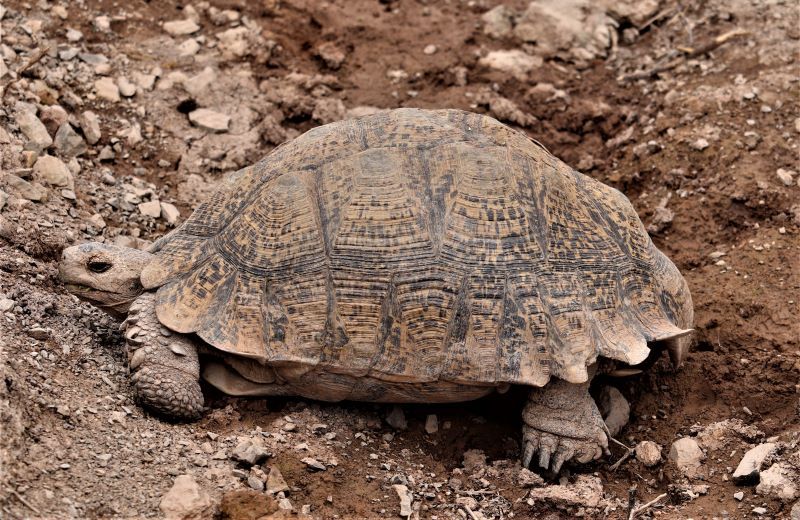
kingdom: Animalia
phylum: Chordata
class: Testudines
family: Testudinidae
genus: Stigmochelys
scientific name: Stigmochelys pardalis
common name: Leopard tortoise
